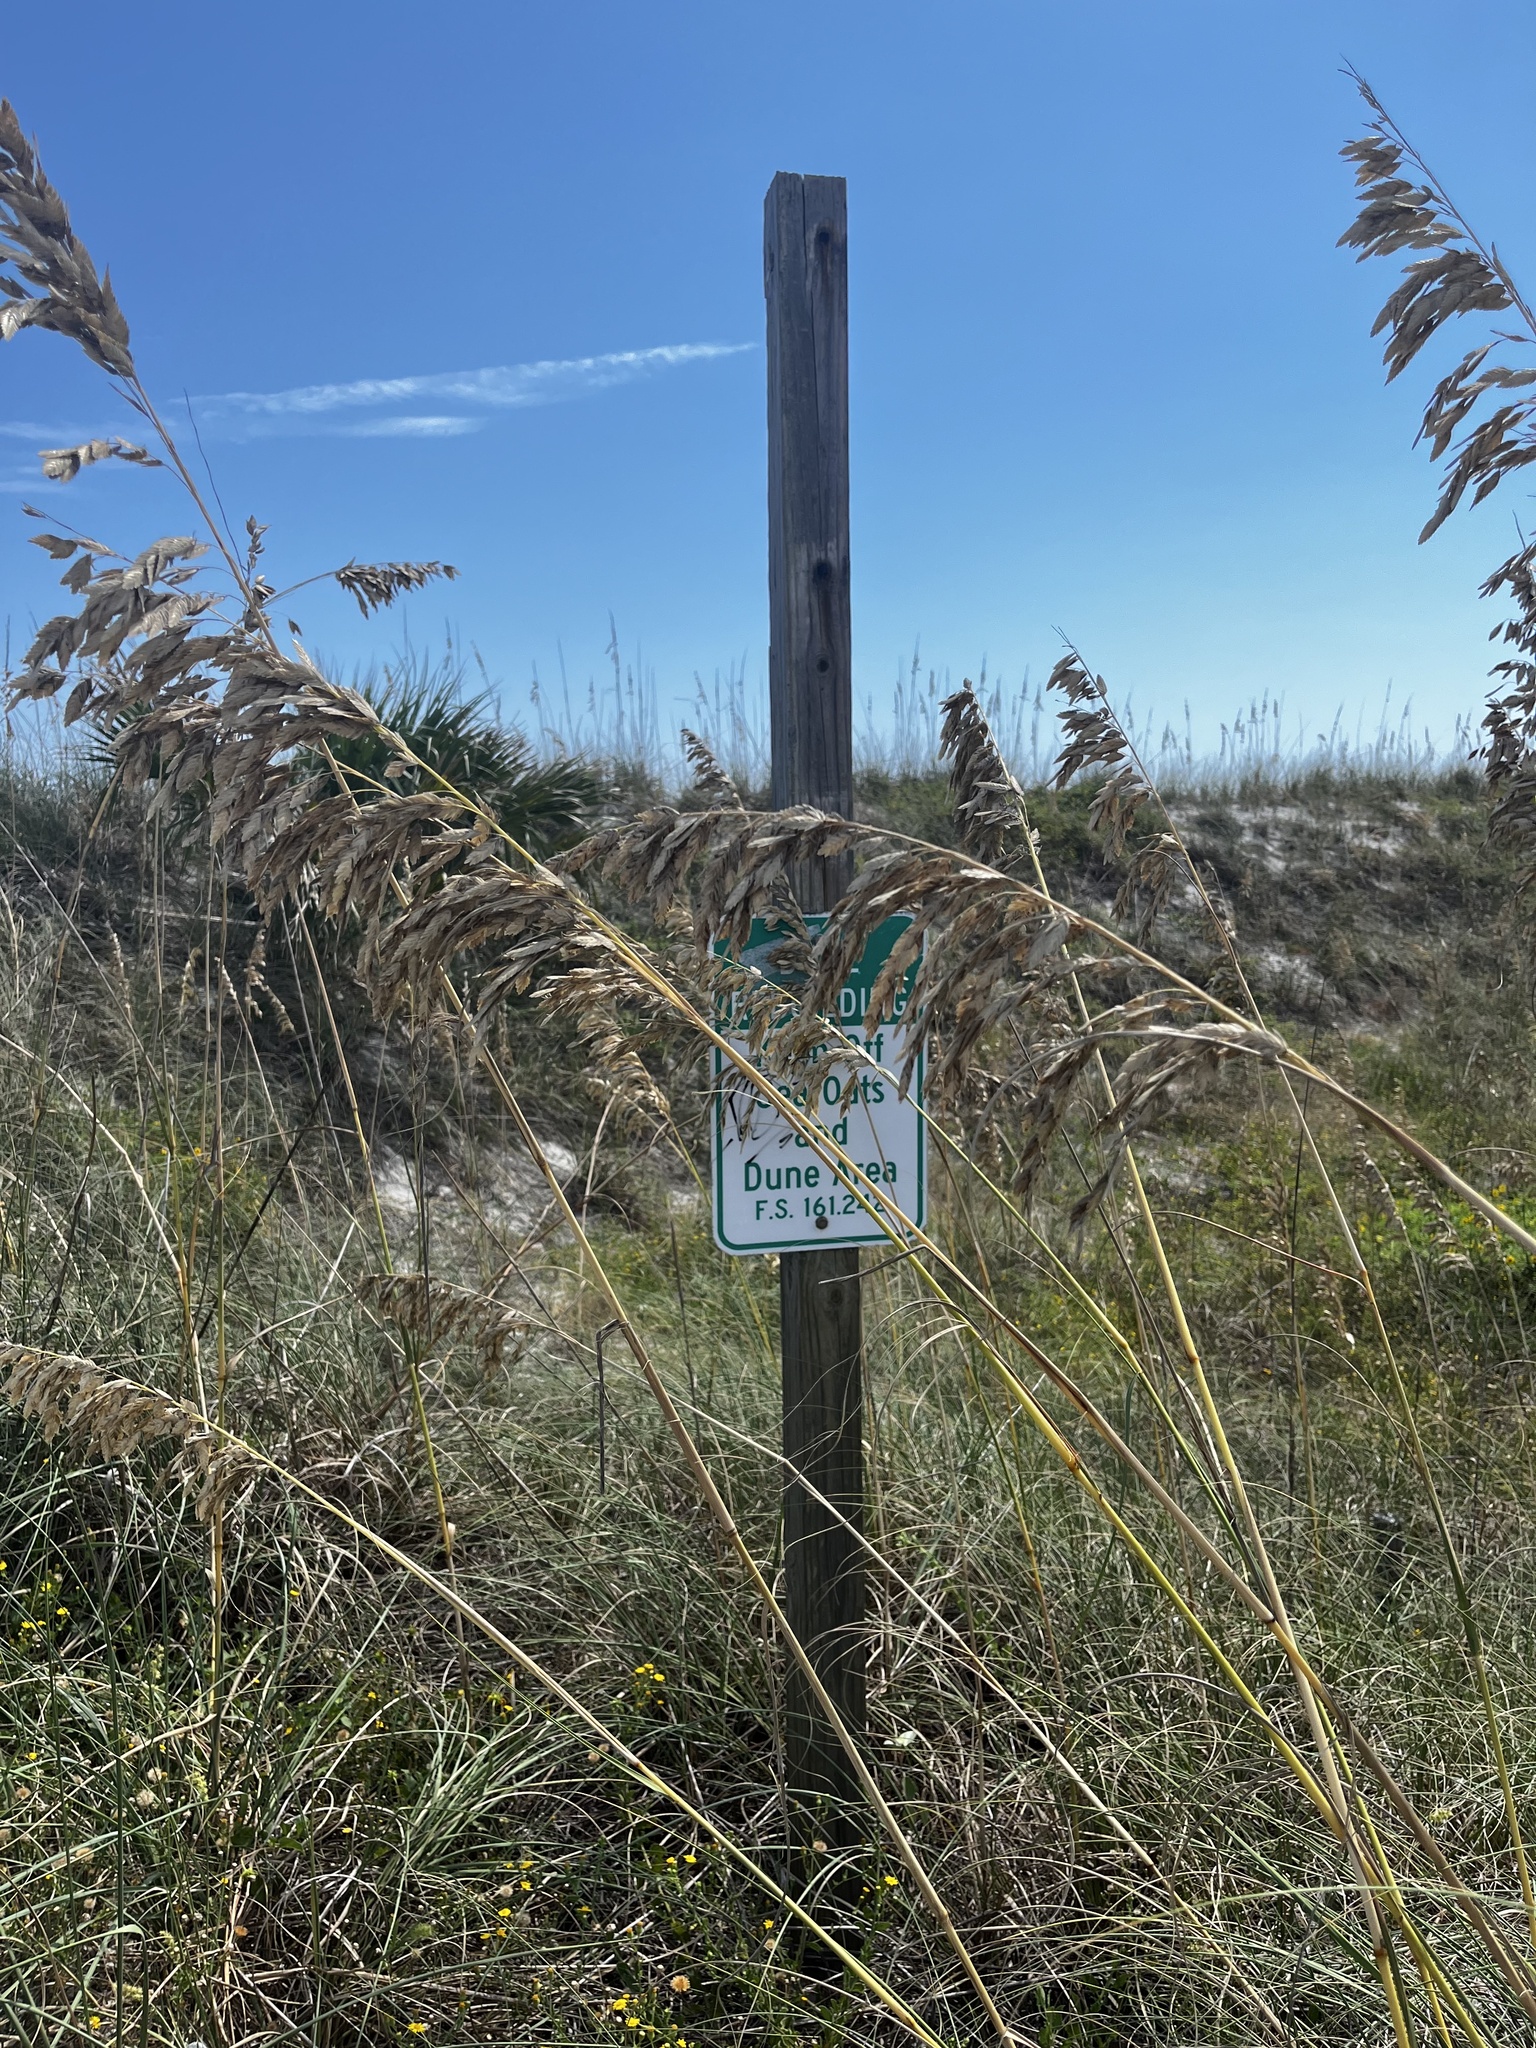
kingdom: Plantae
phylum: Tracheophyta
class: Liliopsida
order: Poales
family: Poaceae
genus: Uniola
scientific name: Uniola paniculata
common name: Seaside-oats
